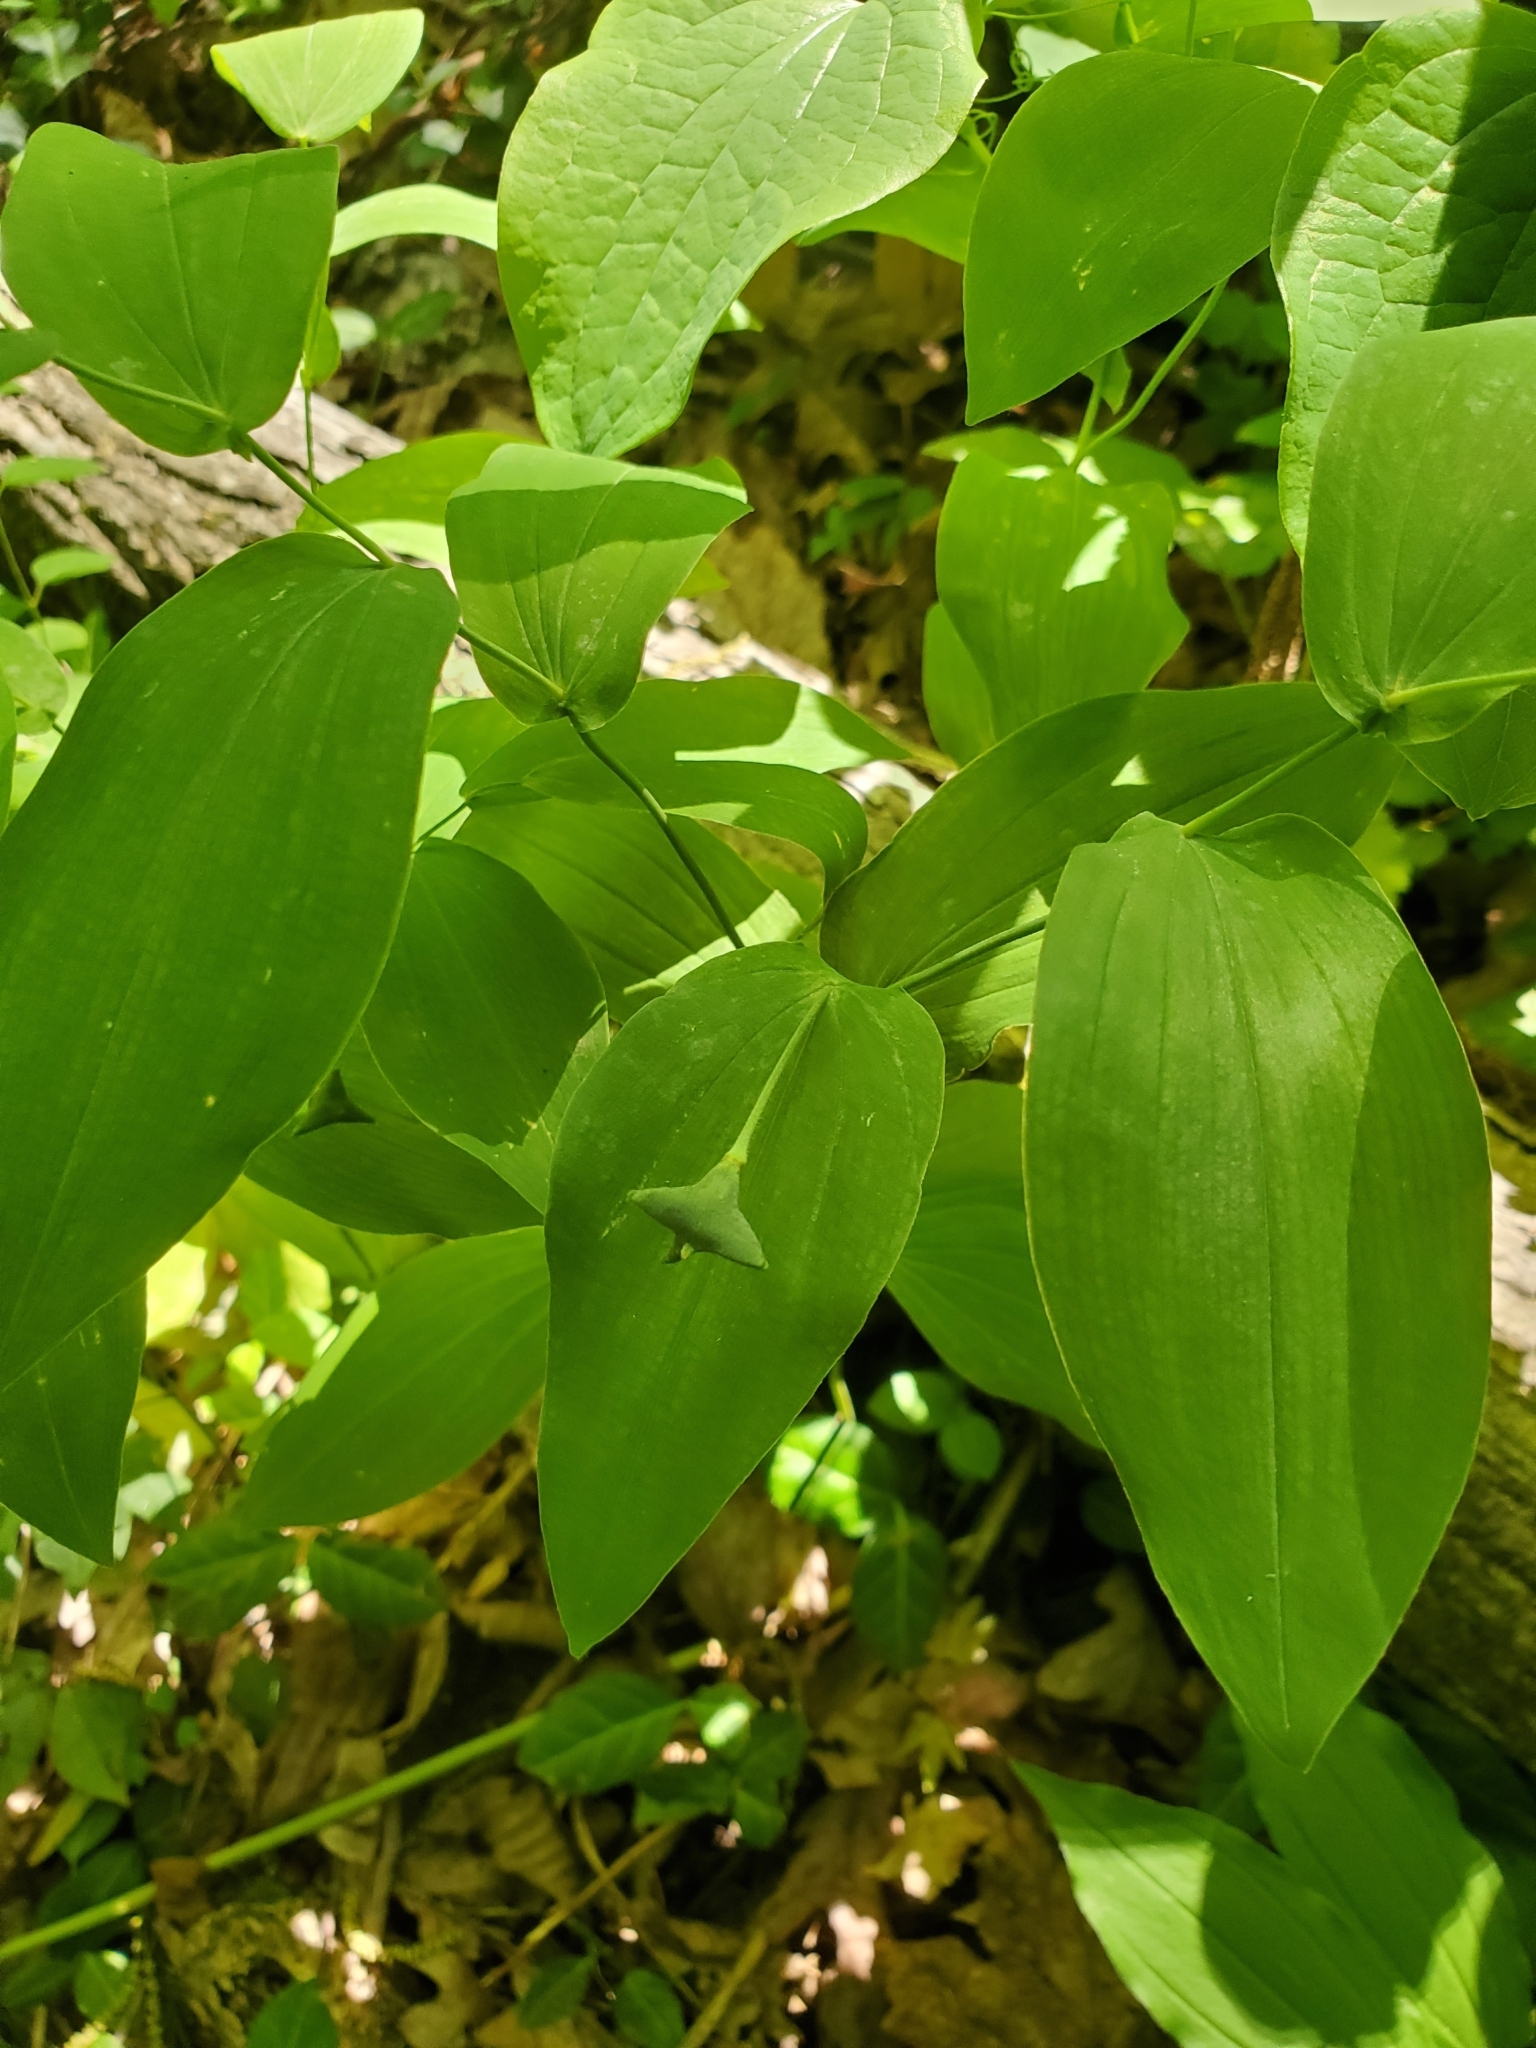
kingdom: Plantae
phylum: Tracheophyta
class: Liliopsida
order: Liliales
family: Colchicaceae
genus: Uvularia
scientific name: Uvularia grandiflora
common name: Bellwort
